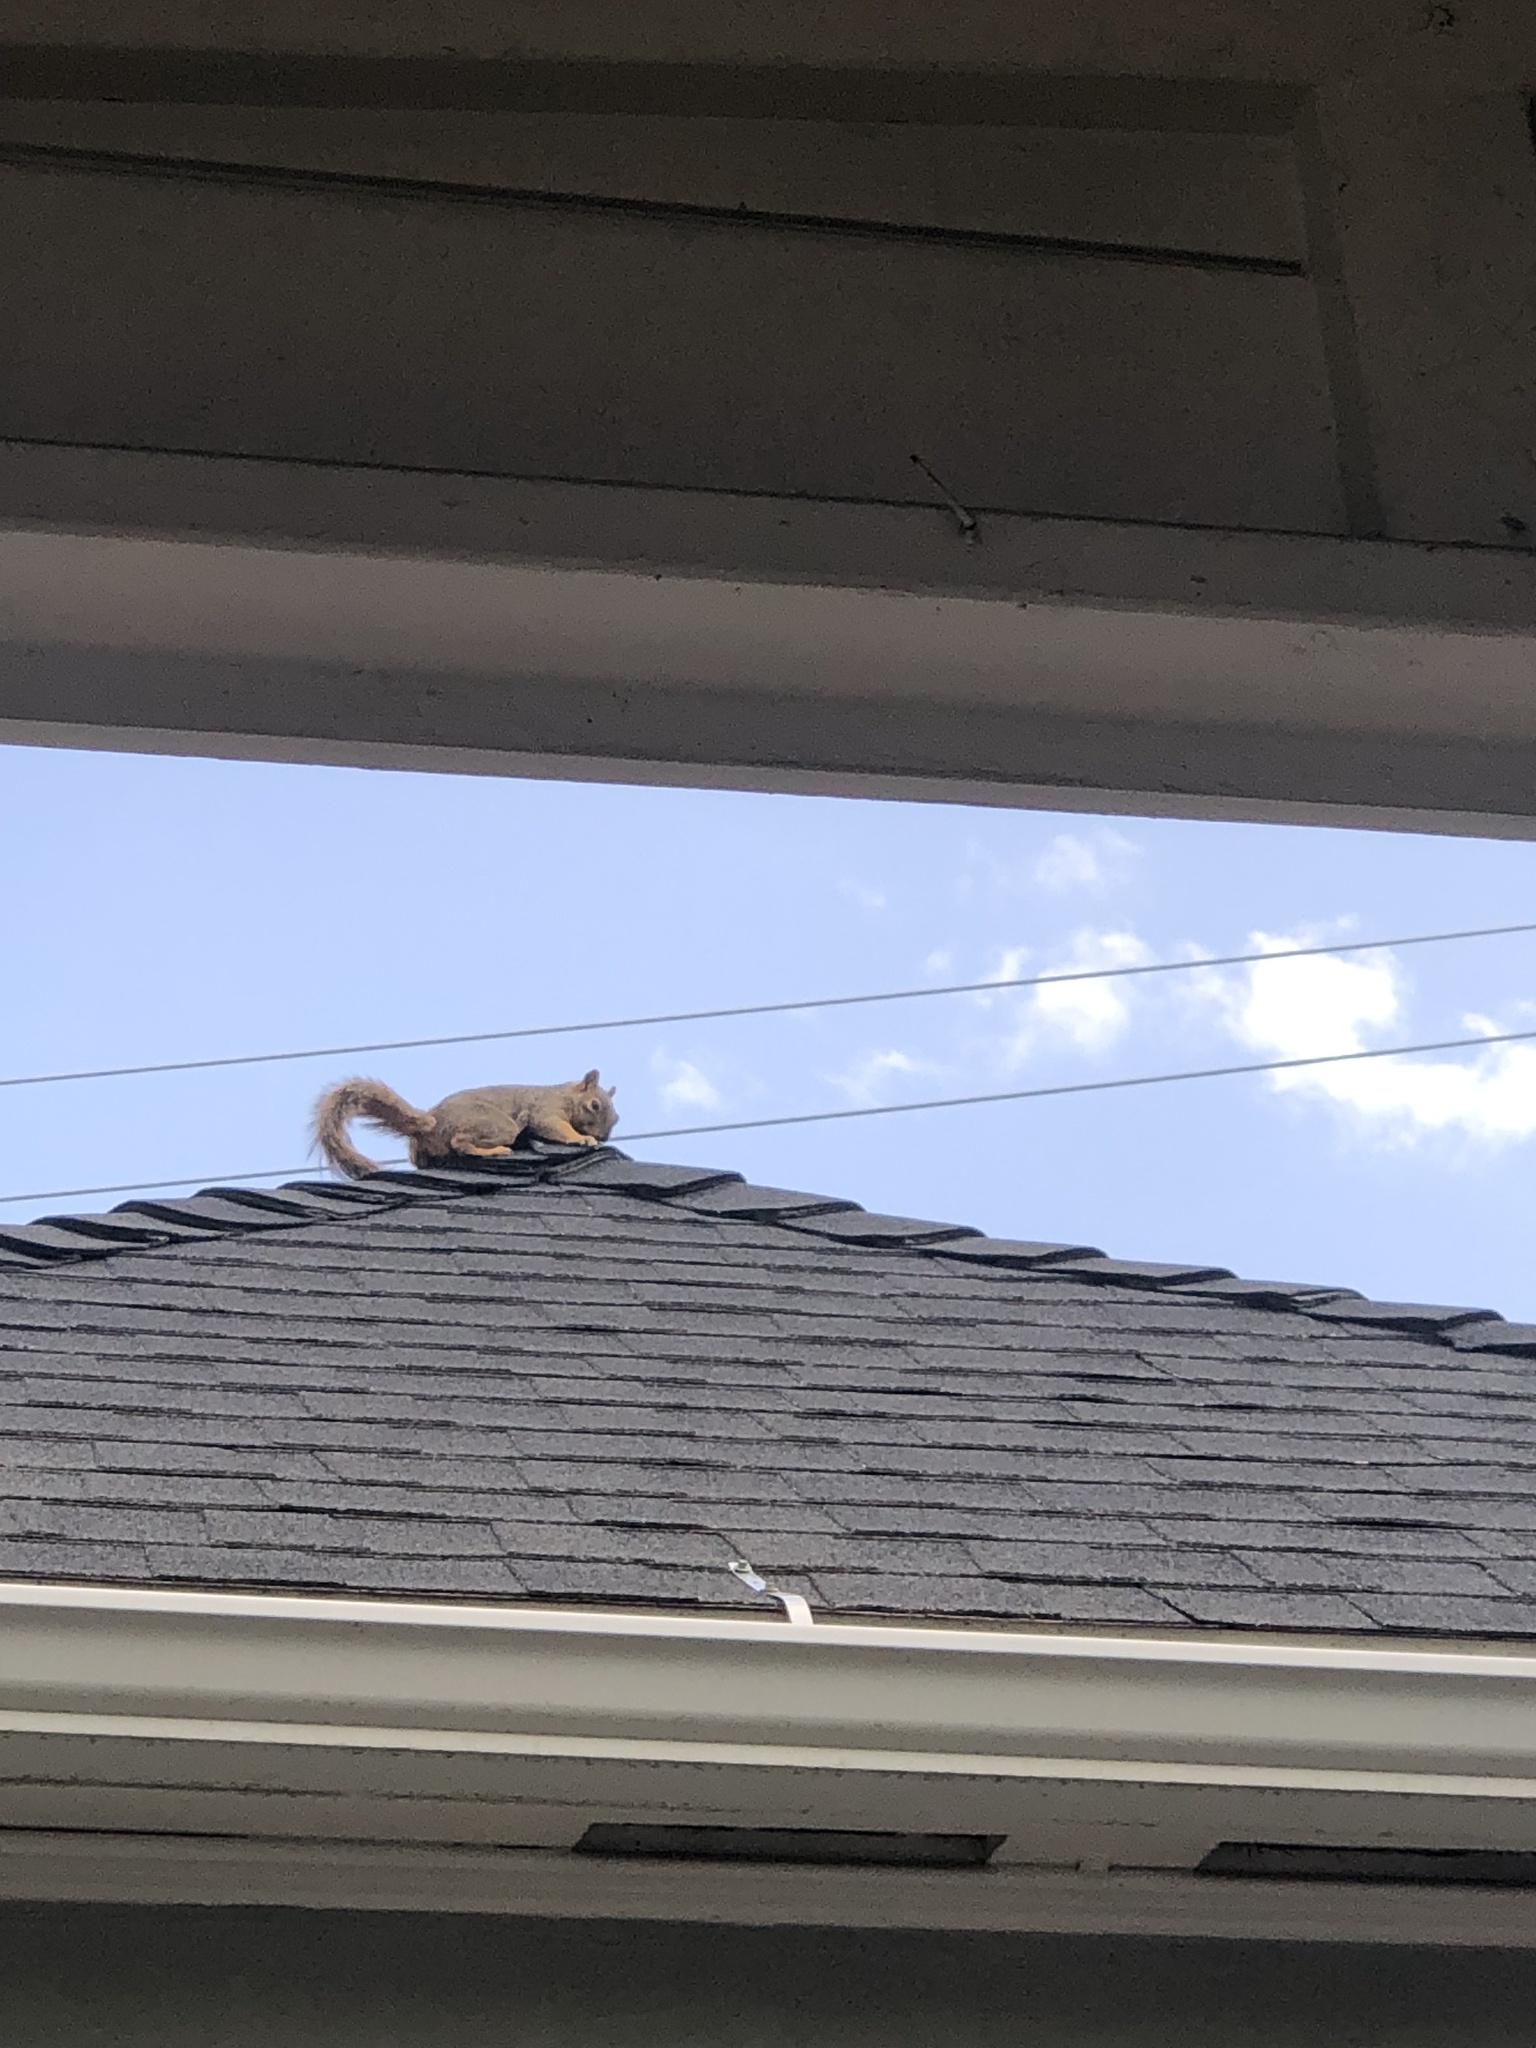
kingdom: Animalia
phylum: Chordata
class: Mammalia
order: Rodentia
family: Sciuridae
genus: Sciurus
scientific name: Sciurus niger
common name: Fox squirrel
